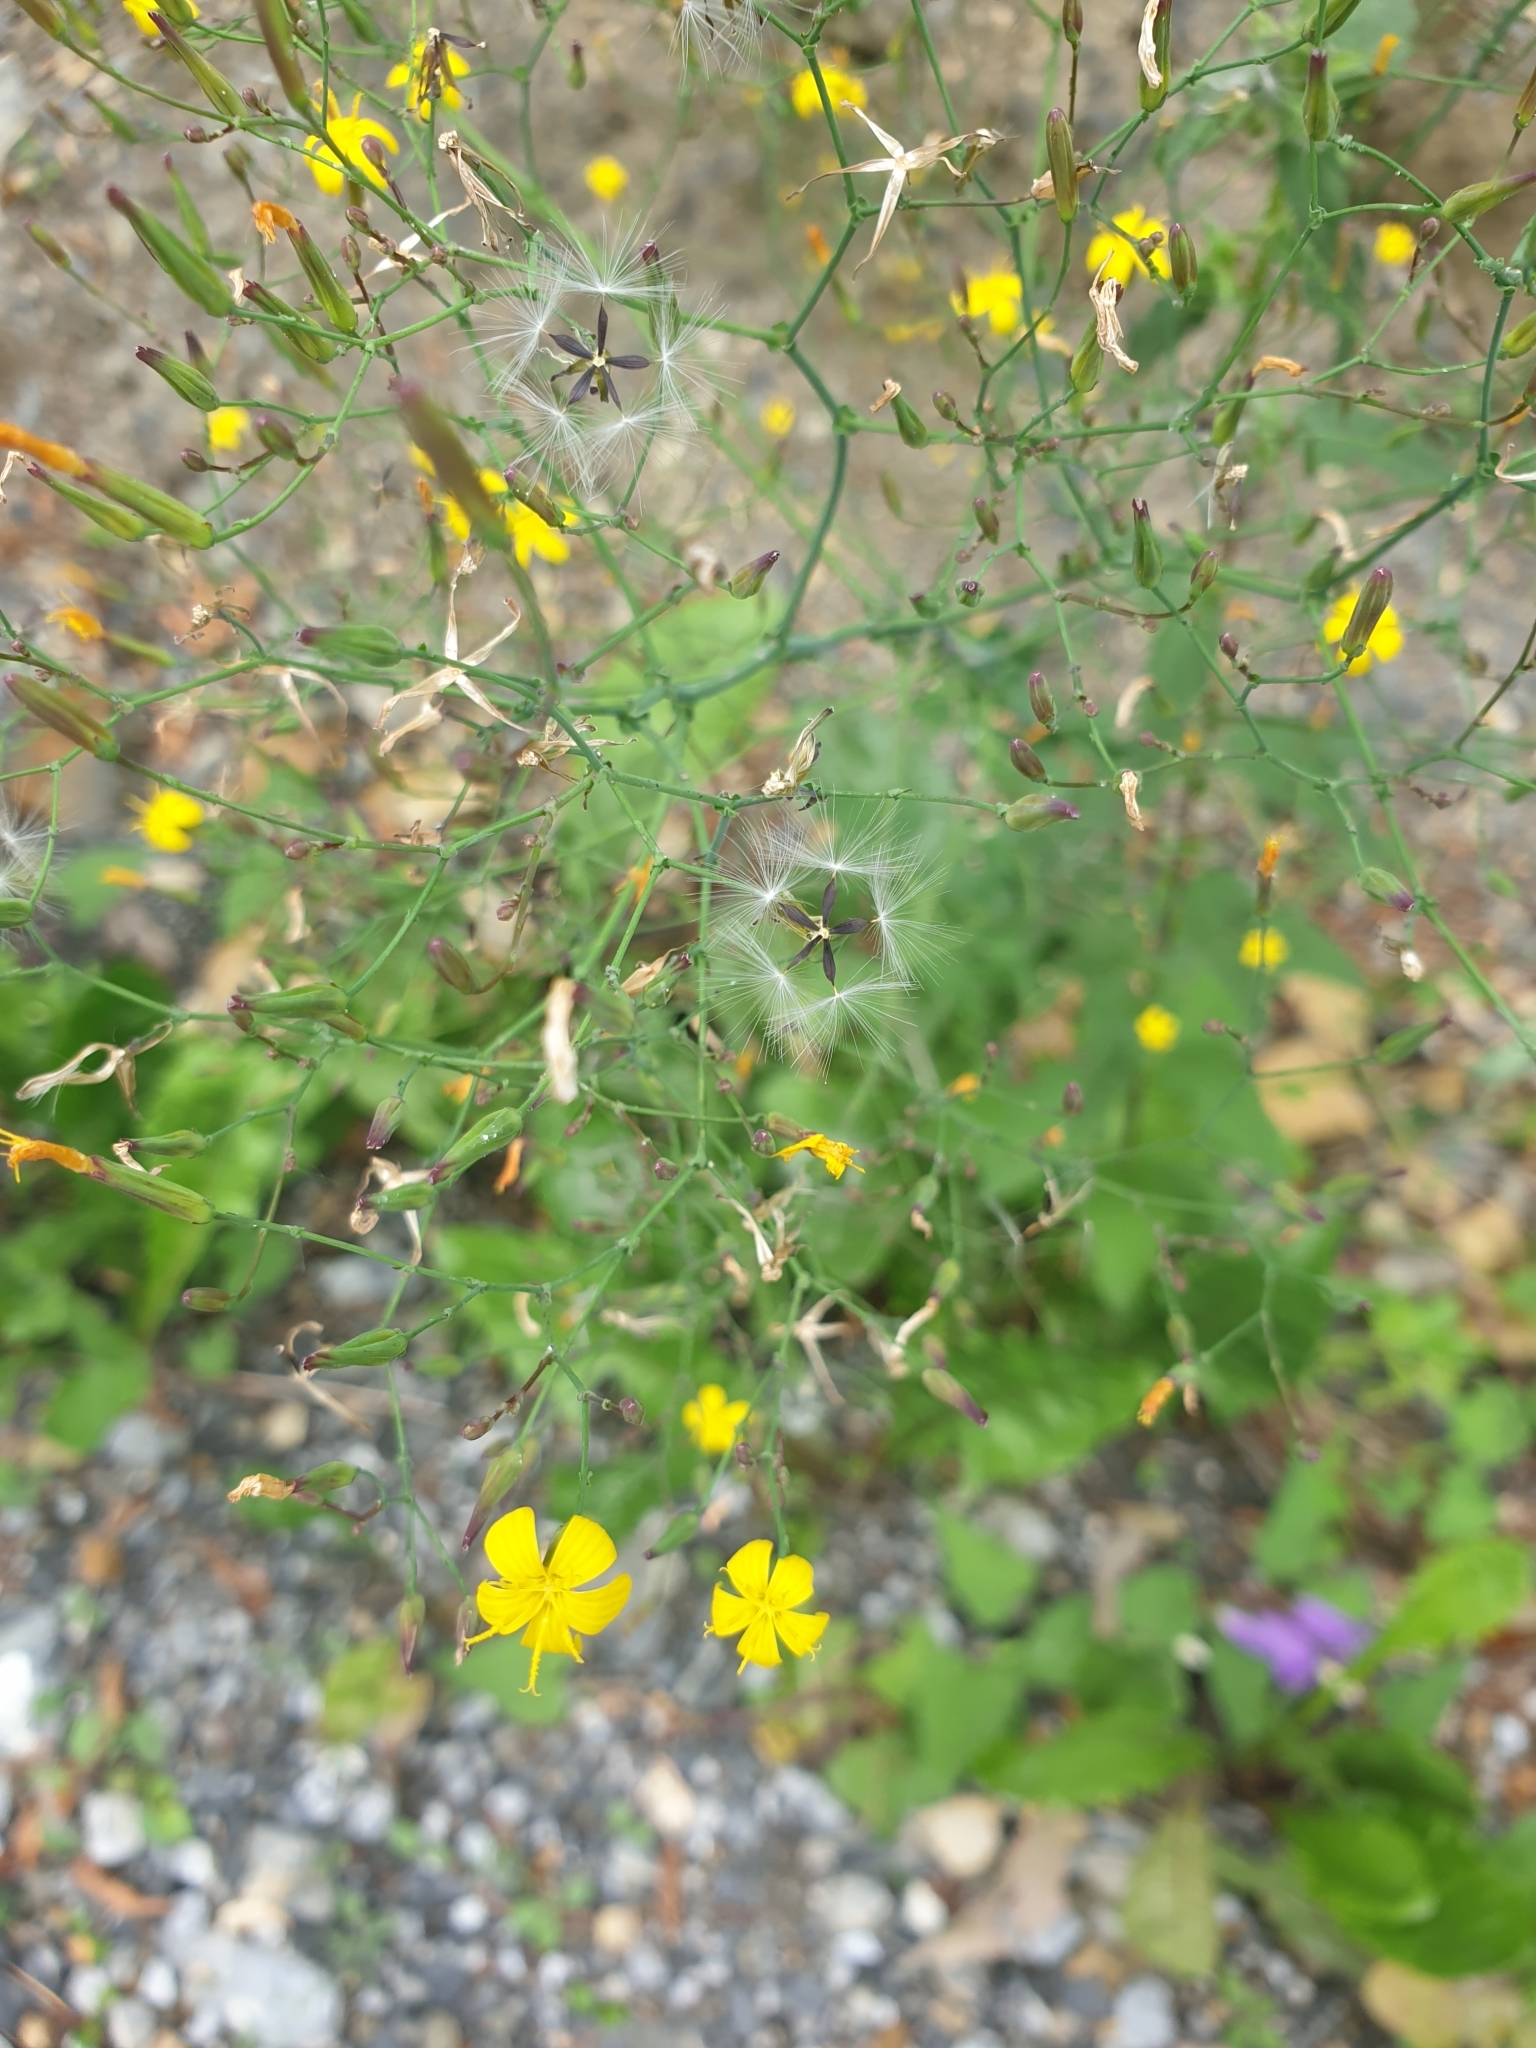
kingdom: Plantae
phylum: Tracheophyta
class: Magnoliopsida
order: Asterales
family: Asteraceae
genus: Mycelis
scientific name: Mycelis muralis
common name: Wall lettuce
